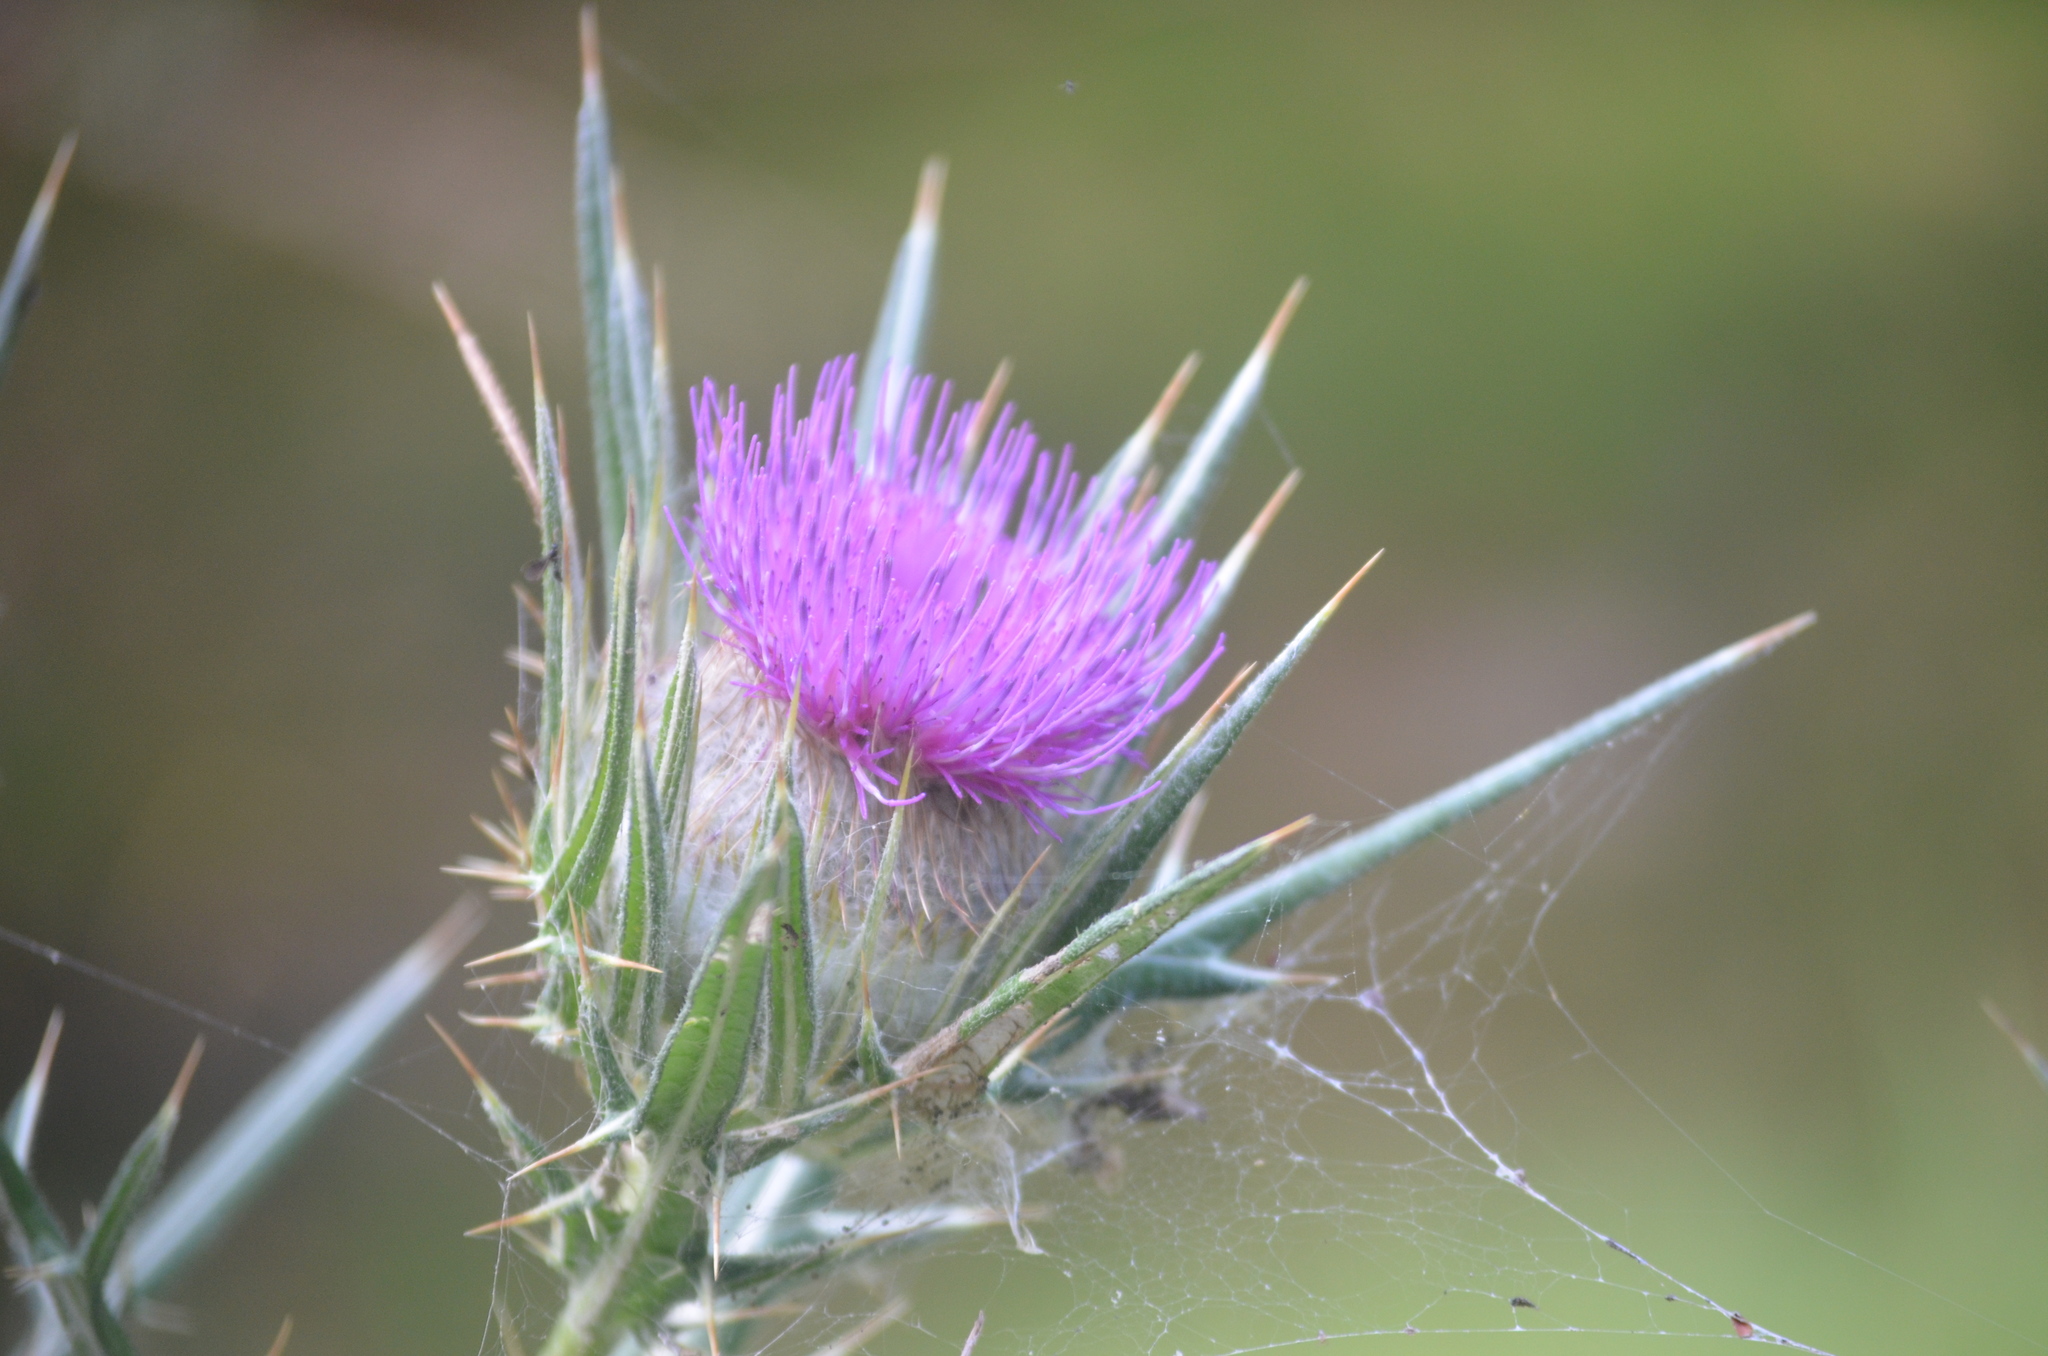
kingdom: Plantae
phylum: Tracheophyta
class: Magnoliopsida
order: Asterales
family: Asteraceae
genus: Lophiolepis
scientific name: Lophiolepis richteriana
